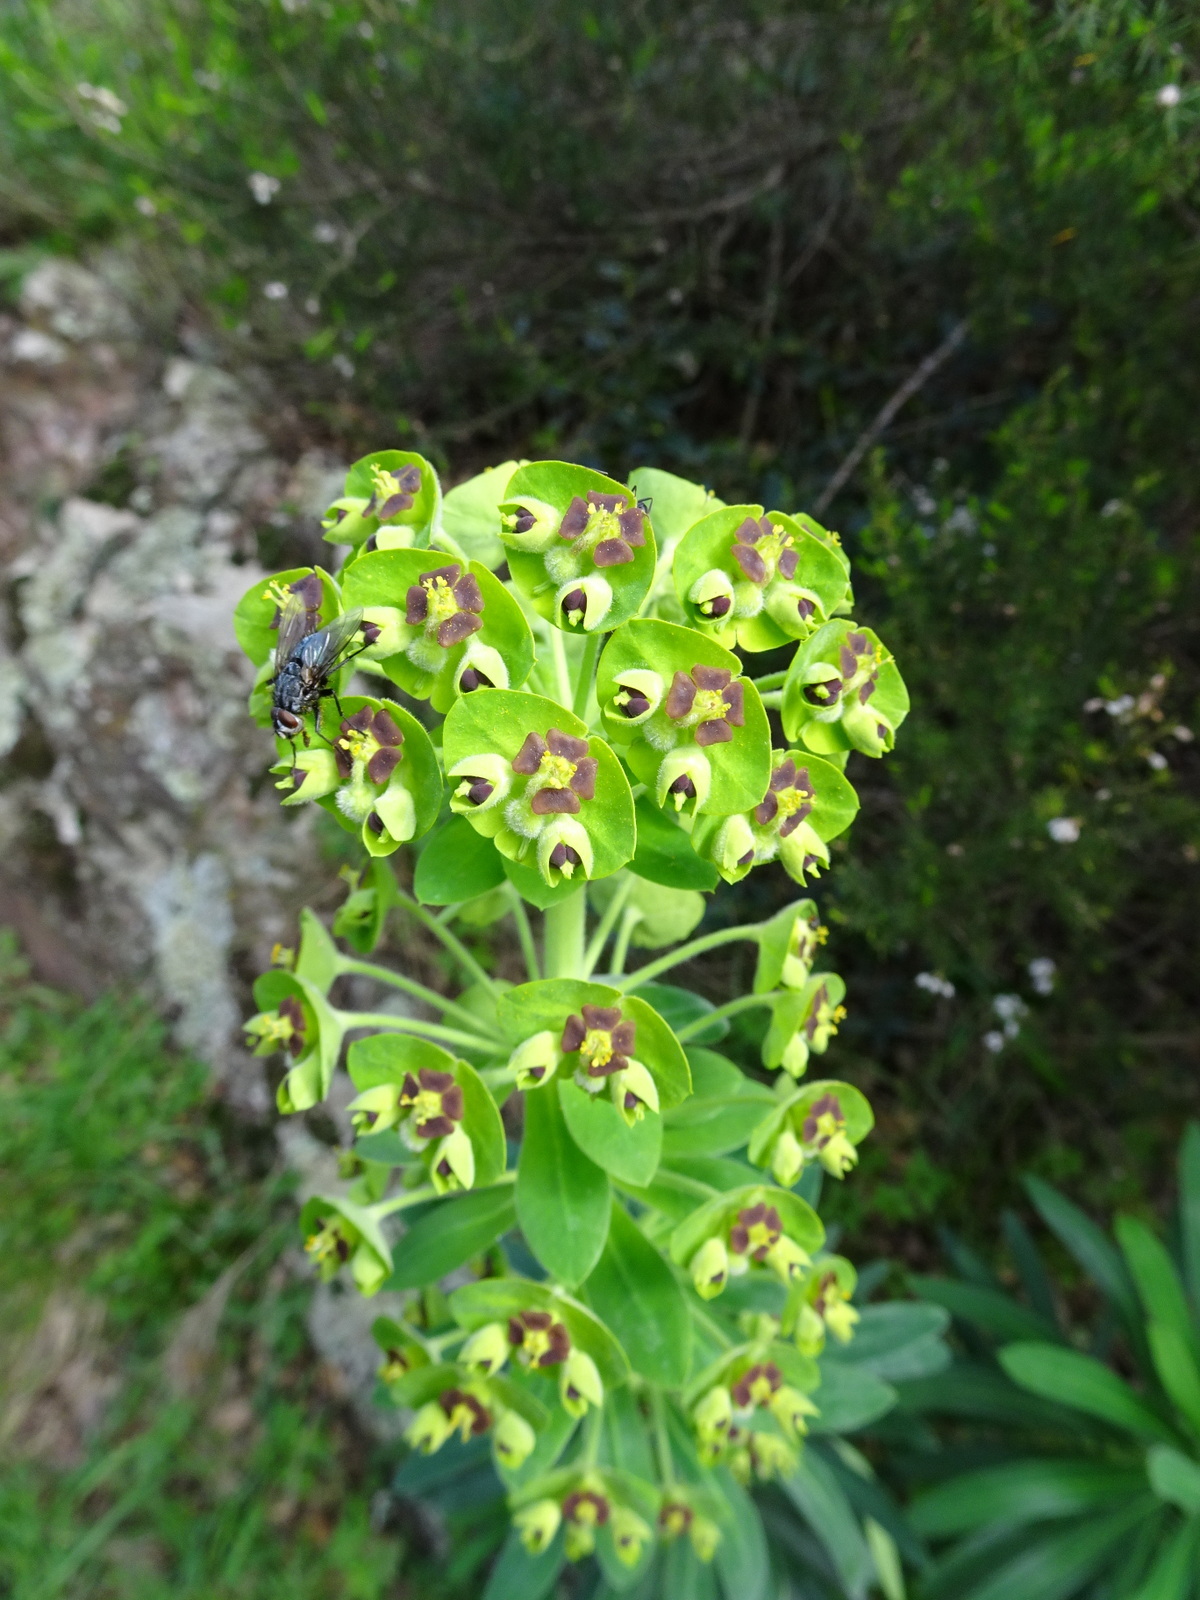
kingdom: Plantae
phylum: Tracheophyta
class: Magnoliopsida
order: Malpighiales
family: Euphorbiaceae
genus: Euphorbia
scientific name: Euphorbia characias
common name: Mediterranean spurge
